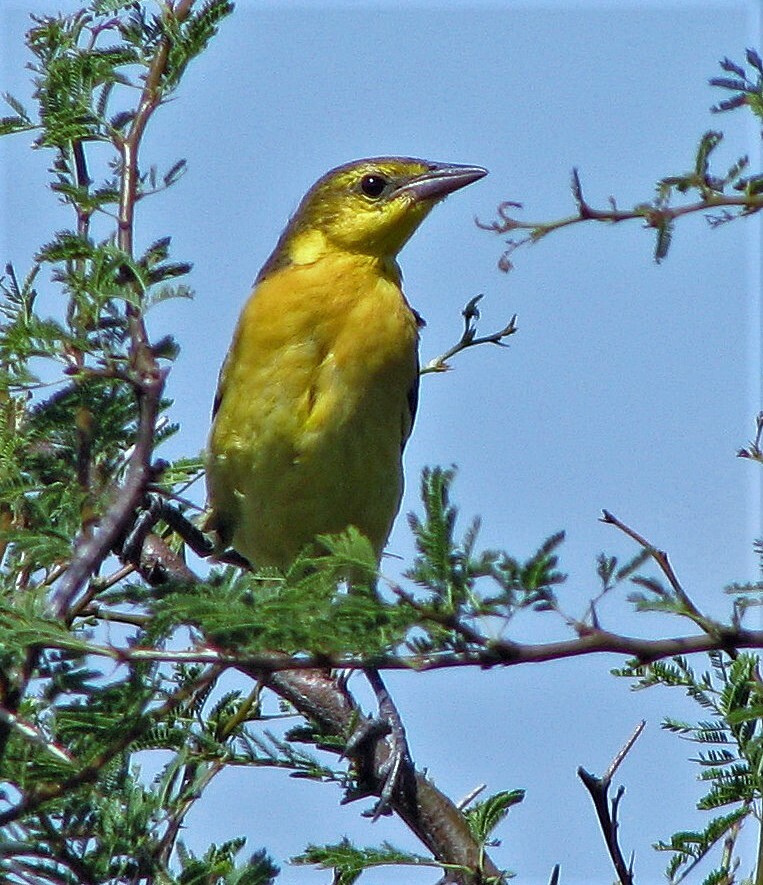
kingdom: Animalia
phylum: Chordata
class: Aves
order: Passeriformes
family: Icteridae
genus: Xanthopsar
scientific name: Xanthopsar flavus
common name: Saffron-cowled blackbird
